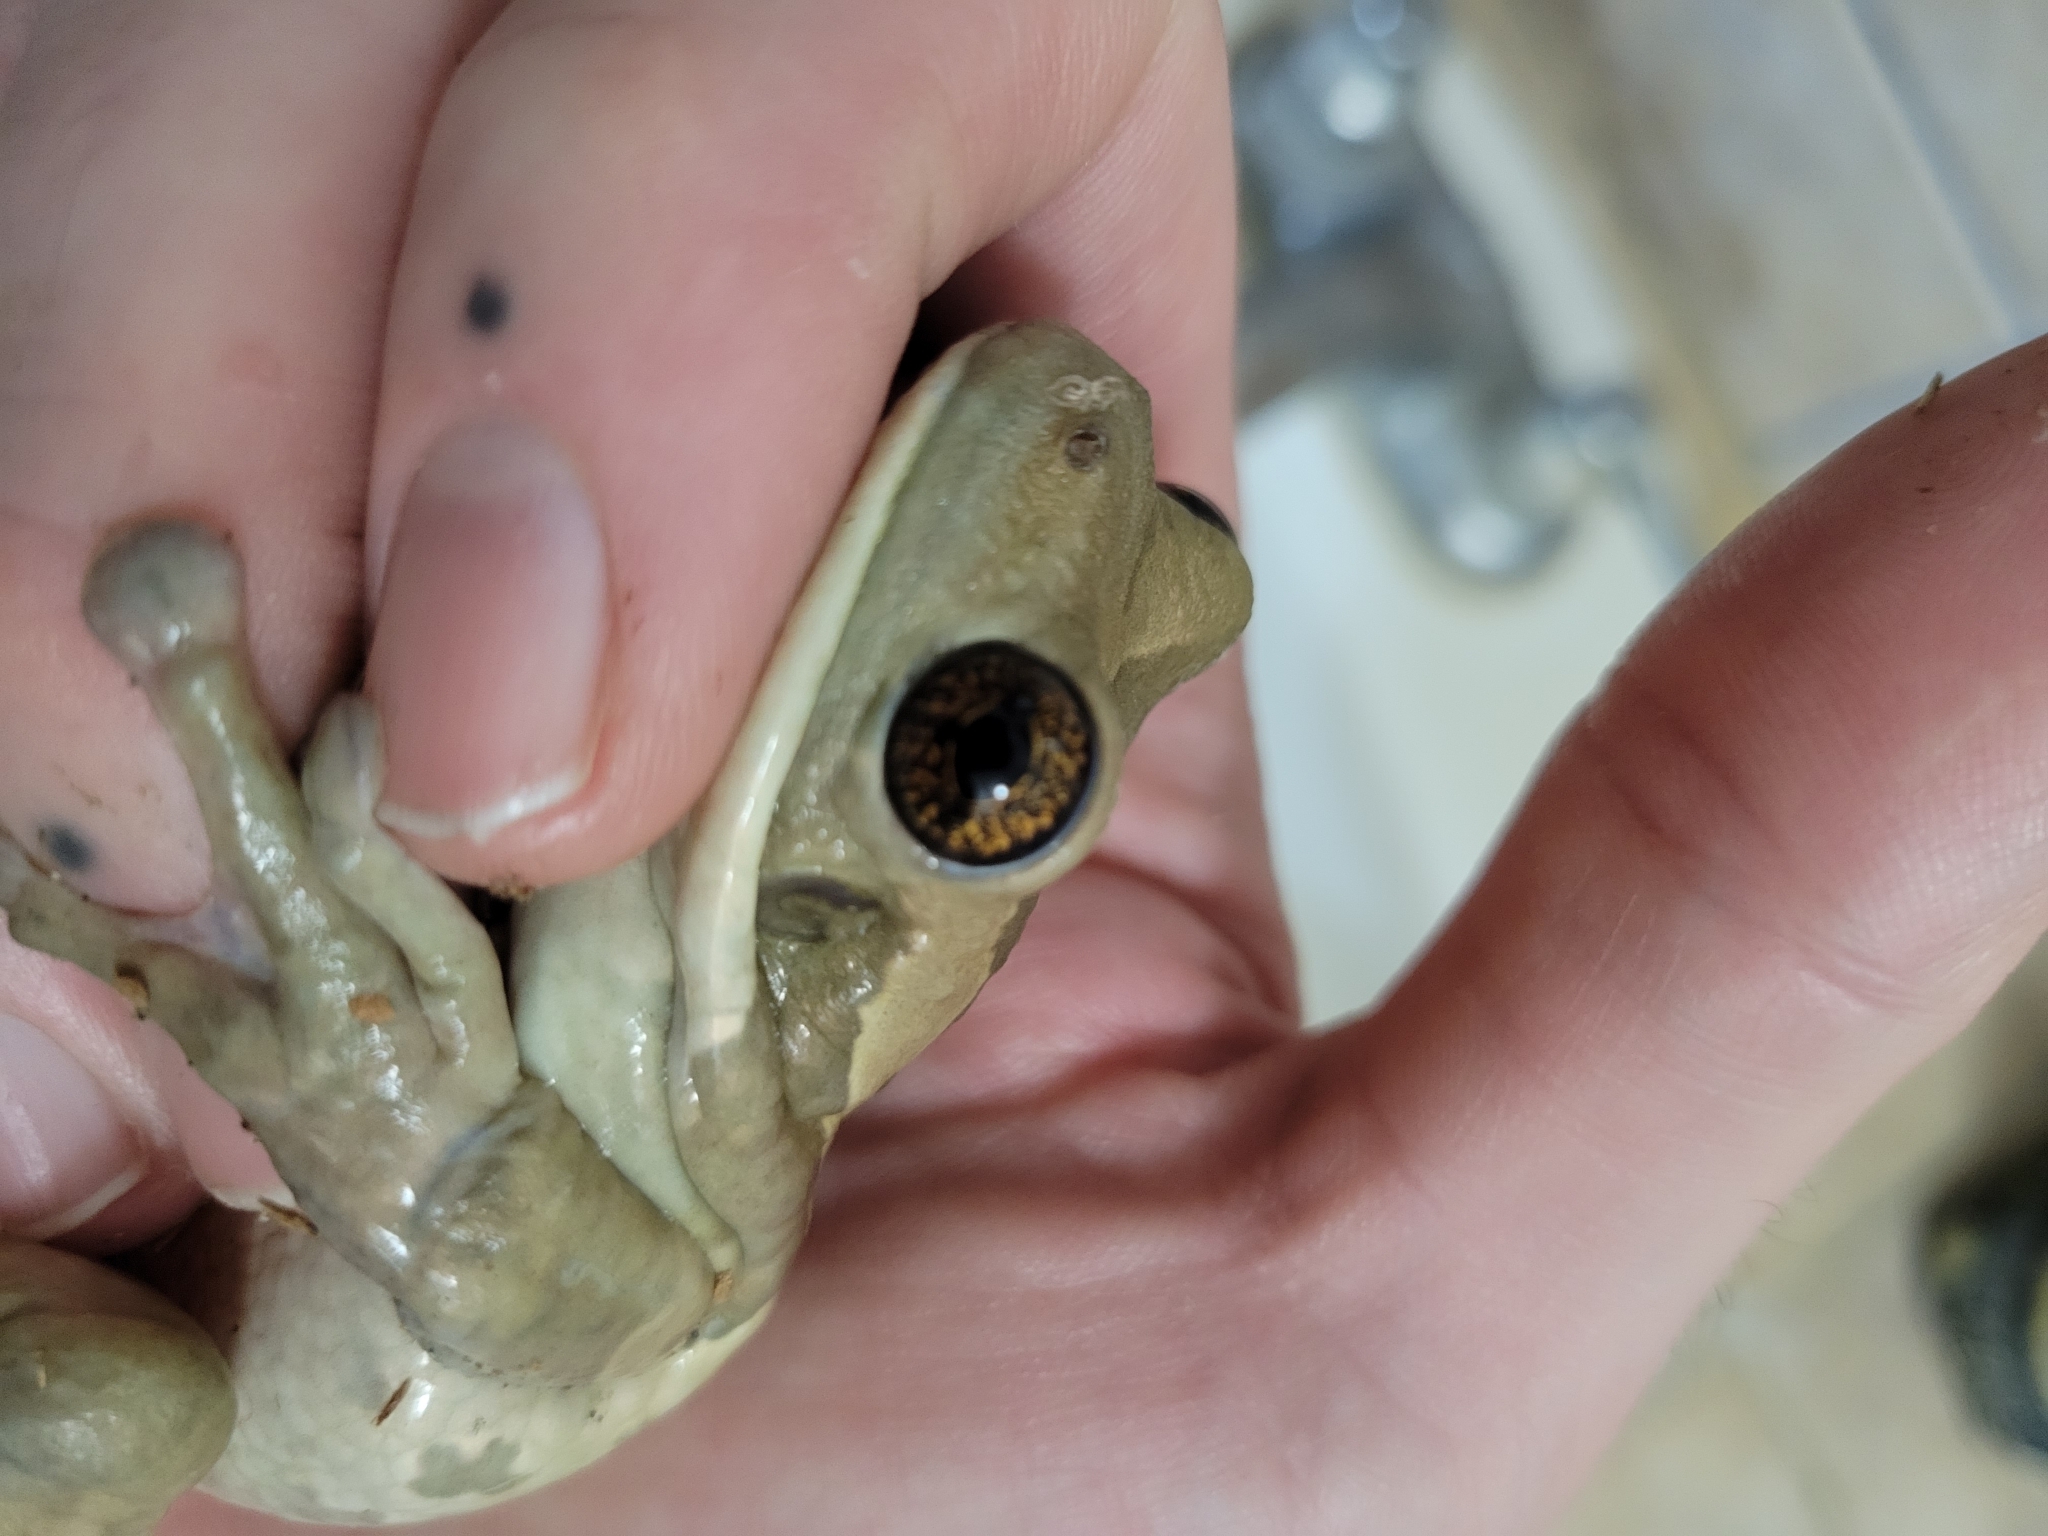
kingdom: Animalia
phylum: Chordata
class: Amphibia
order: Anura
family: Hylidae
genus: Trachycephalus
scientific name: Trachycephalus vermiculatus
